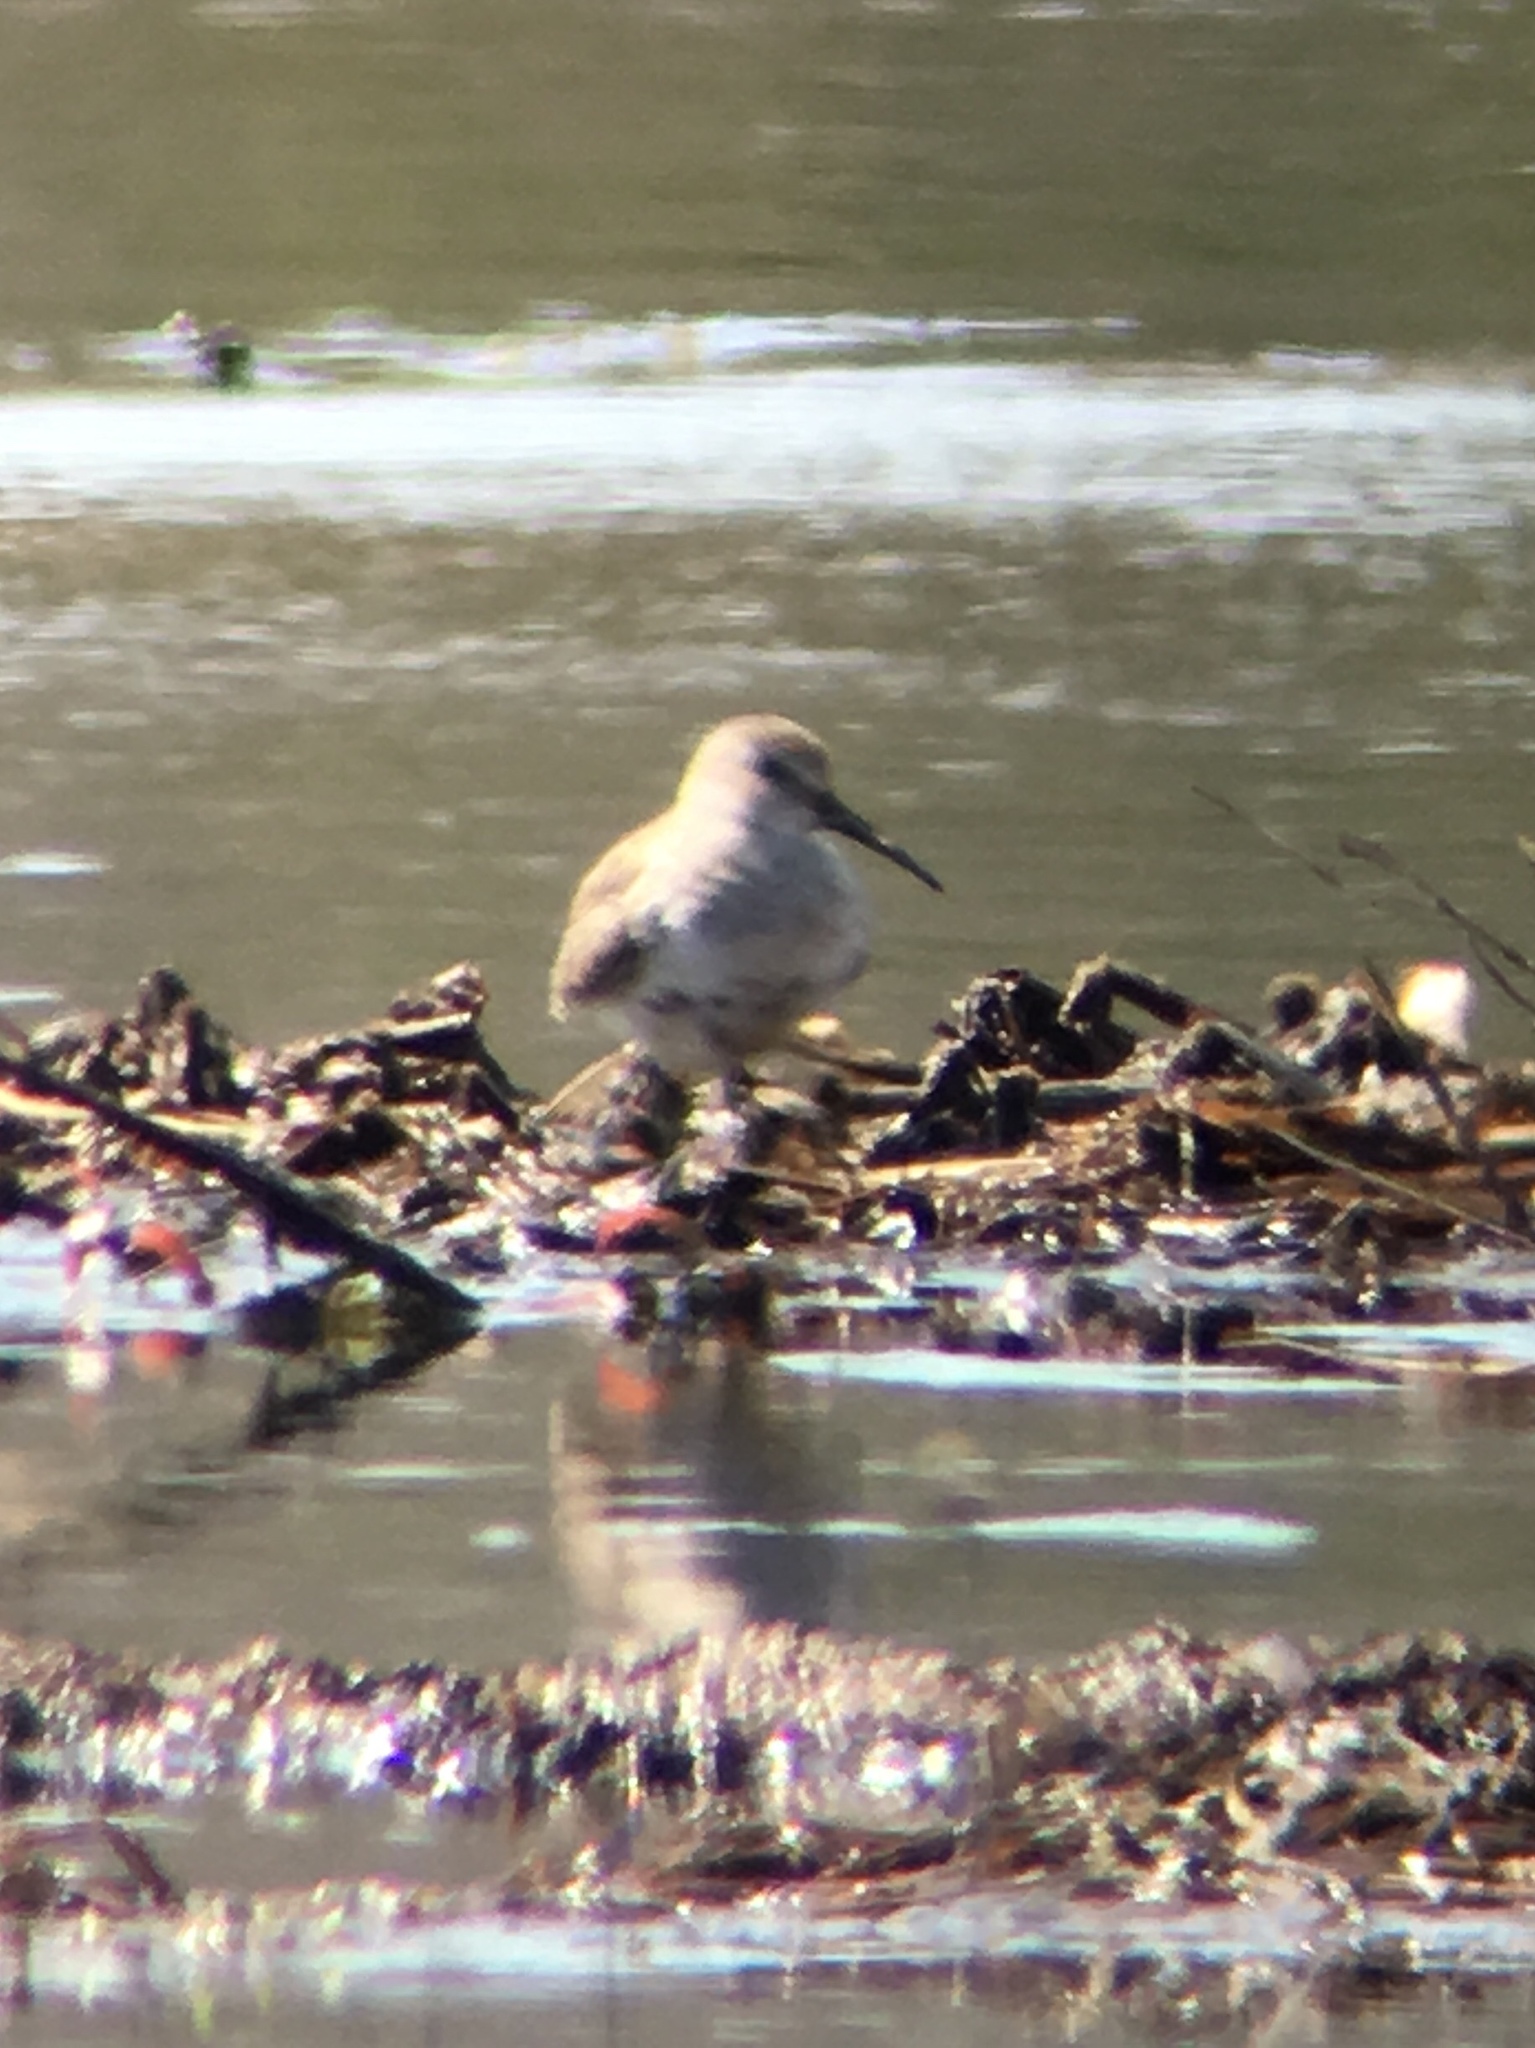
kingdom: Animalia
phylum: Chordata
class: Aves
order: Charadriiformes
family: Scolopacidae
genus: Calidris
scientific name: Calidris alpina
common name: Dunlin
